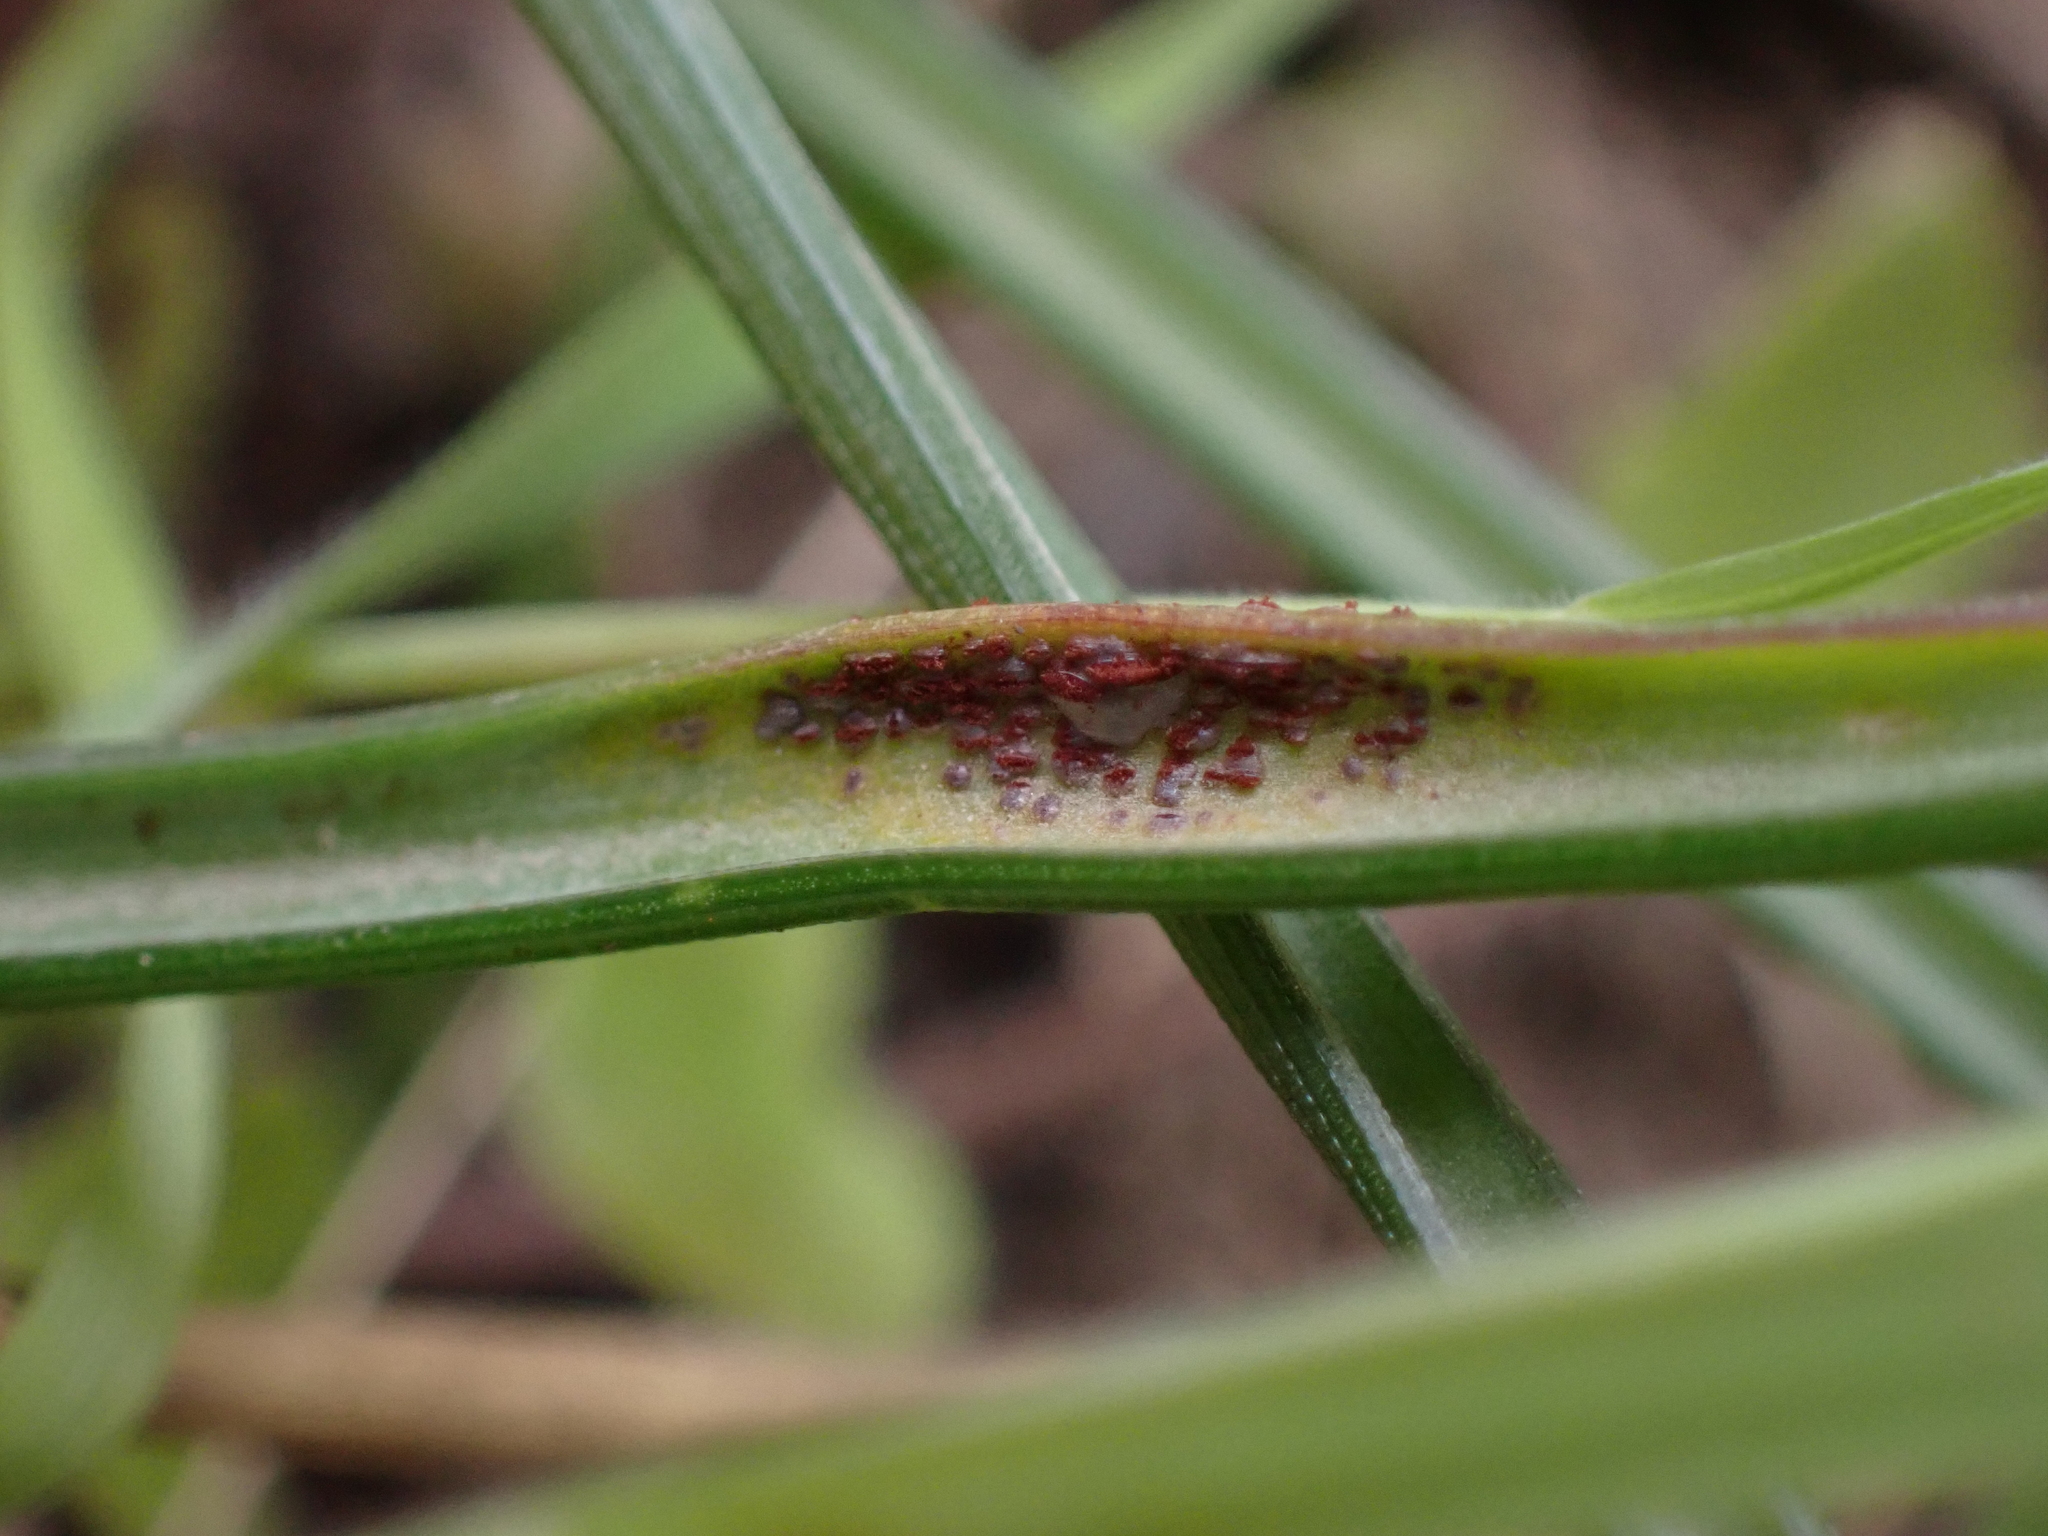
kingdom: Fungi
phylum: Basidiomycota
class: Pucciniomycetes
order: Pucciniales
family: Pucciniaceae
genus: Uromyces
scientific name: Uromyces muscari
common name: Bluebell rust
